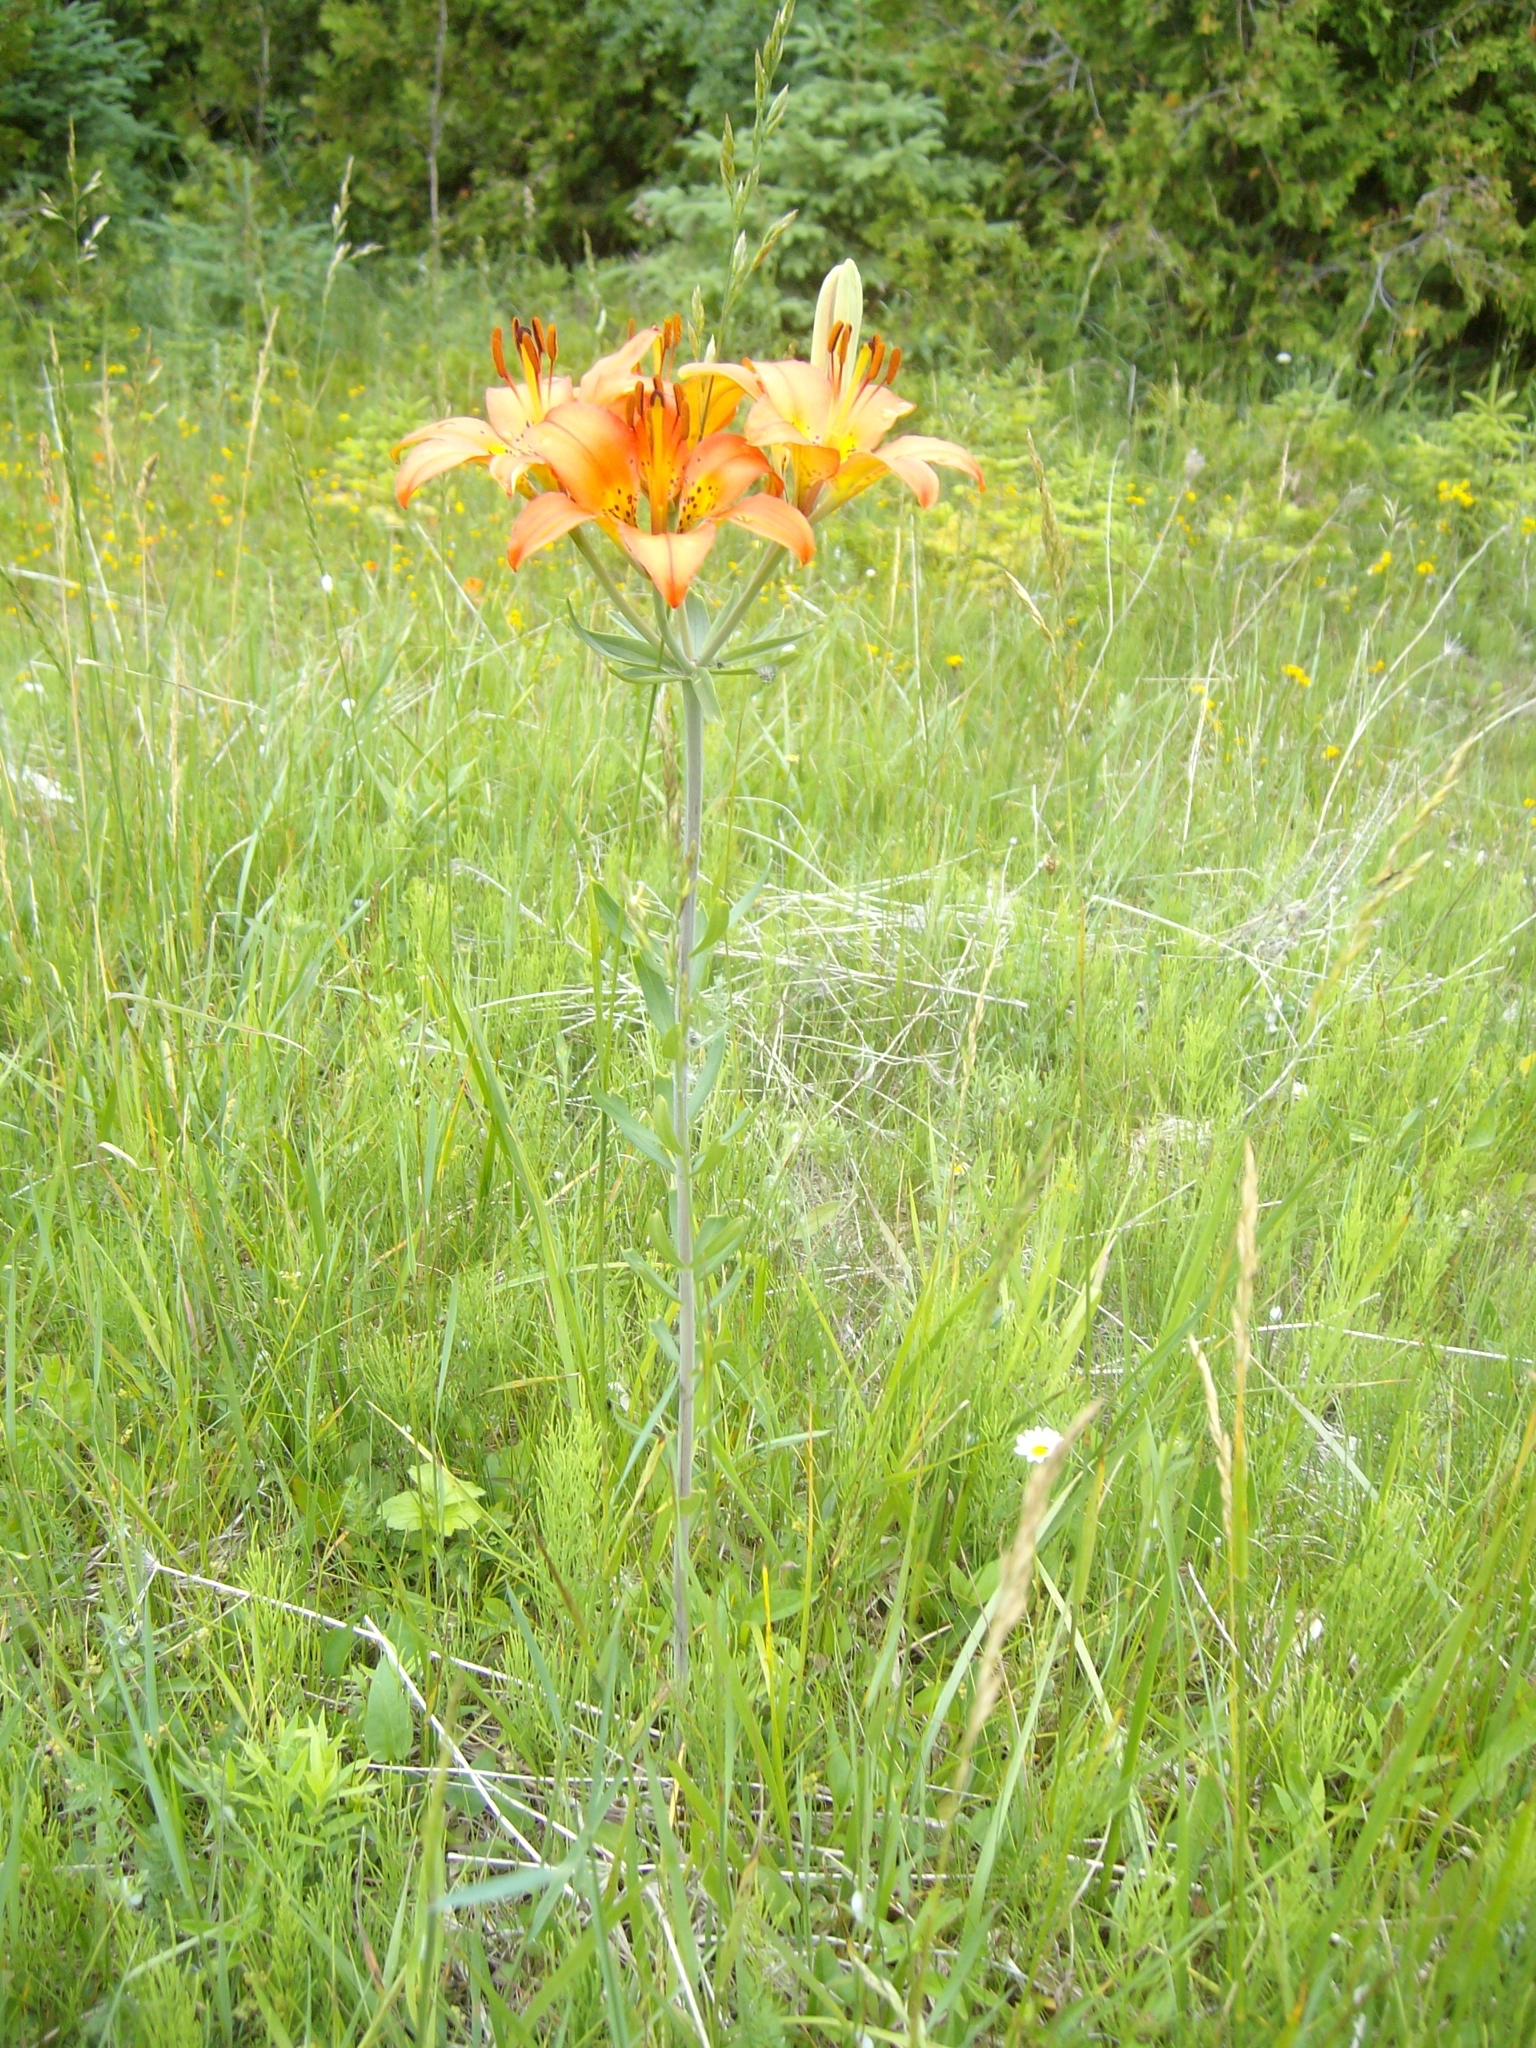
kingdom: Plantae
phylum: Tracheophyta
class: Liliopsida
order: Liliales
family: Liliaceae
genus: Lilium
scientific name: Lilium philadelphicum
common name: Red lily
